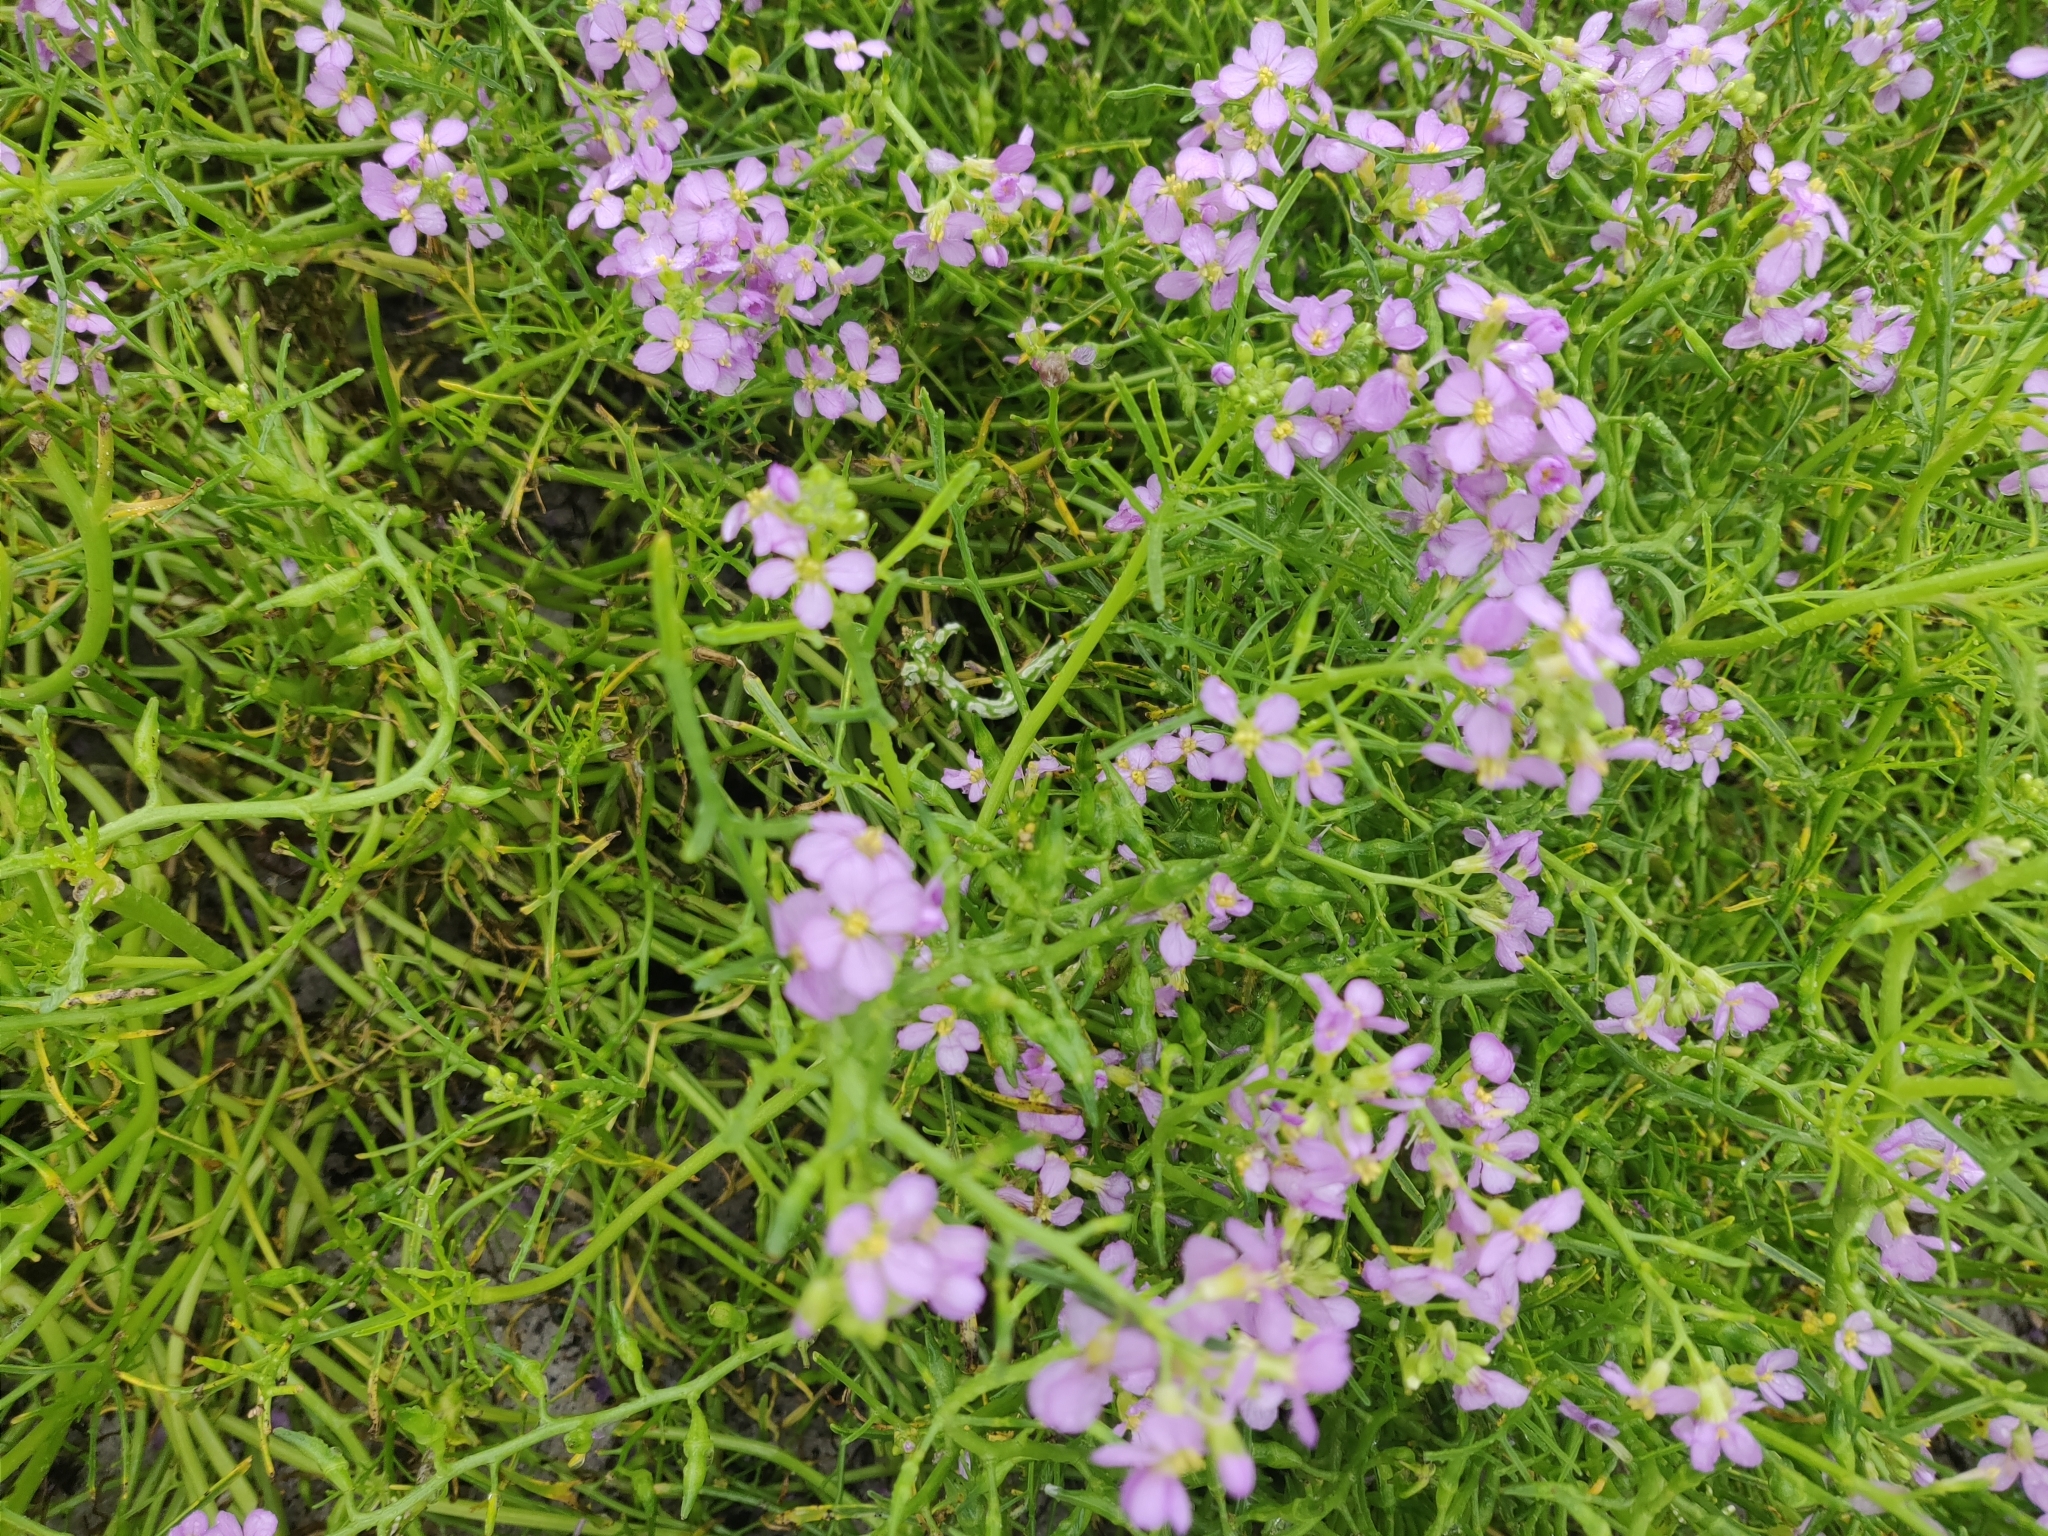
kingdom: Plantae
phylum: Tracheophyta
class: Magnoliopsida
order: Brassicales
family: Brassicaceae
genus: Cakile
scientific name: Cakile maritima
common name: Sea rocket
